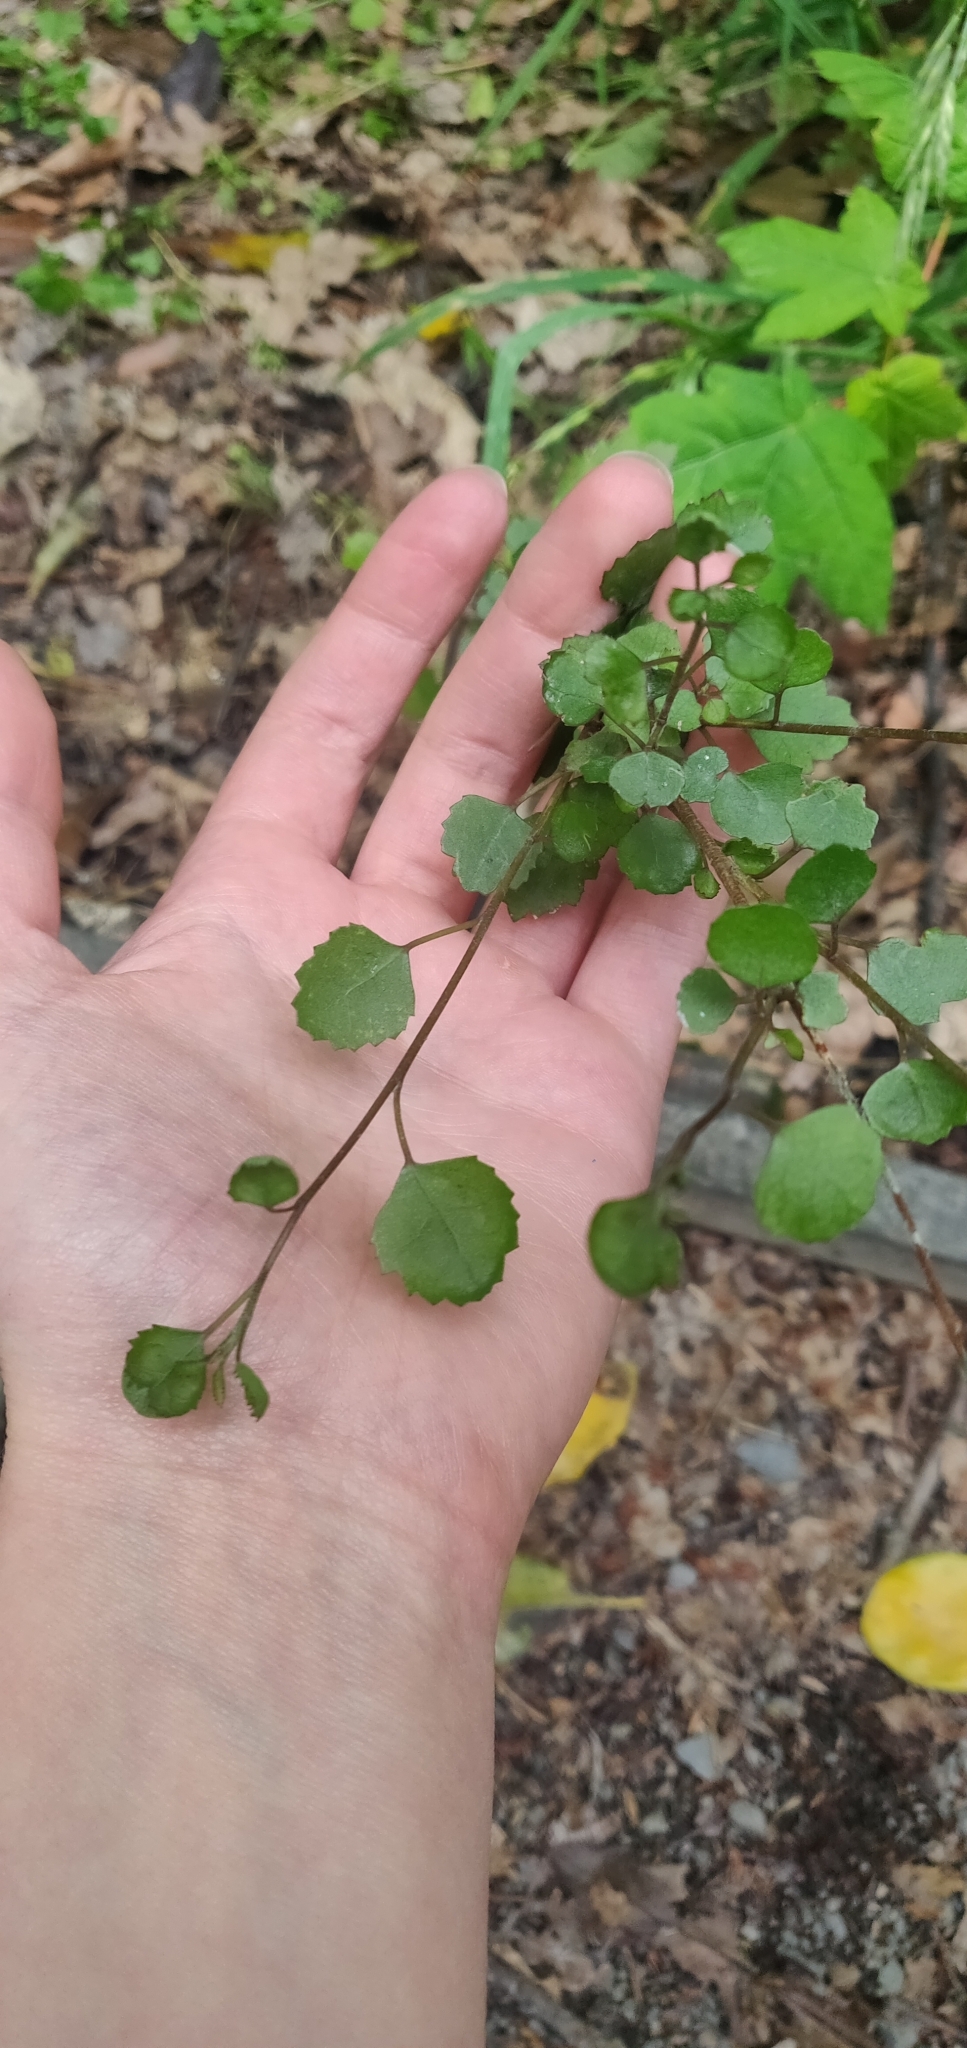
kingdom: Plantae
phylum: Tracheophyta
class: Magnoliopsida
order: Malvales
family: Malvaceae
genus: Plagianthus
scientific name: Plagianthus regius
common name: Manatu
